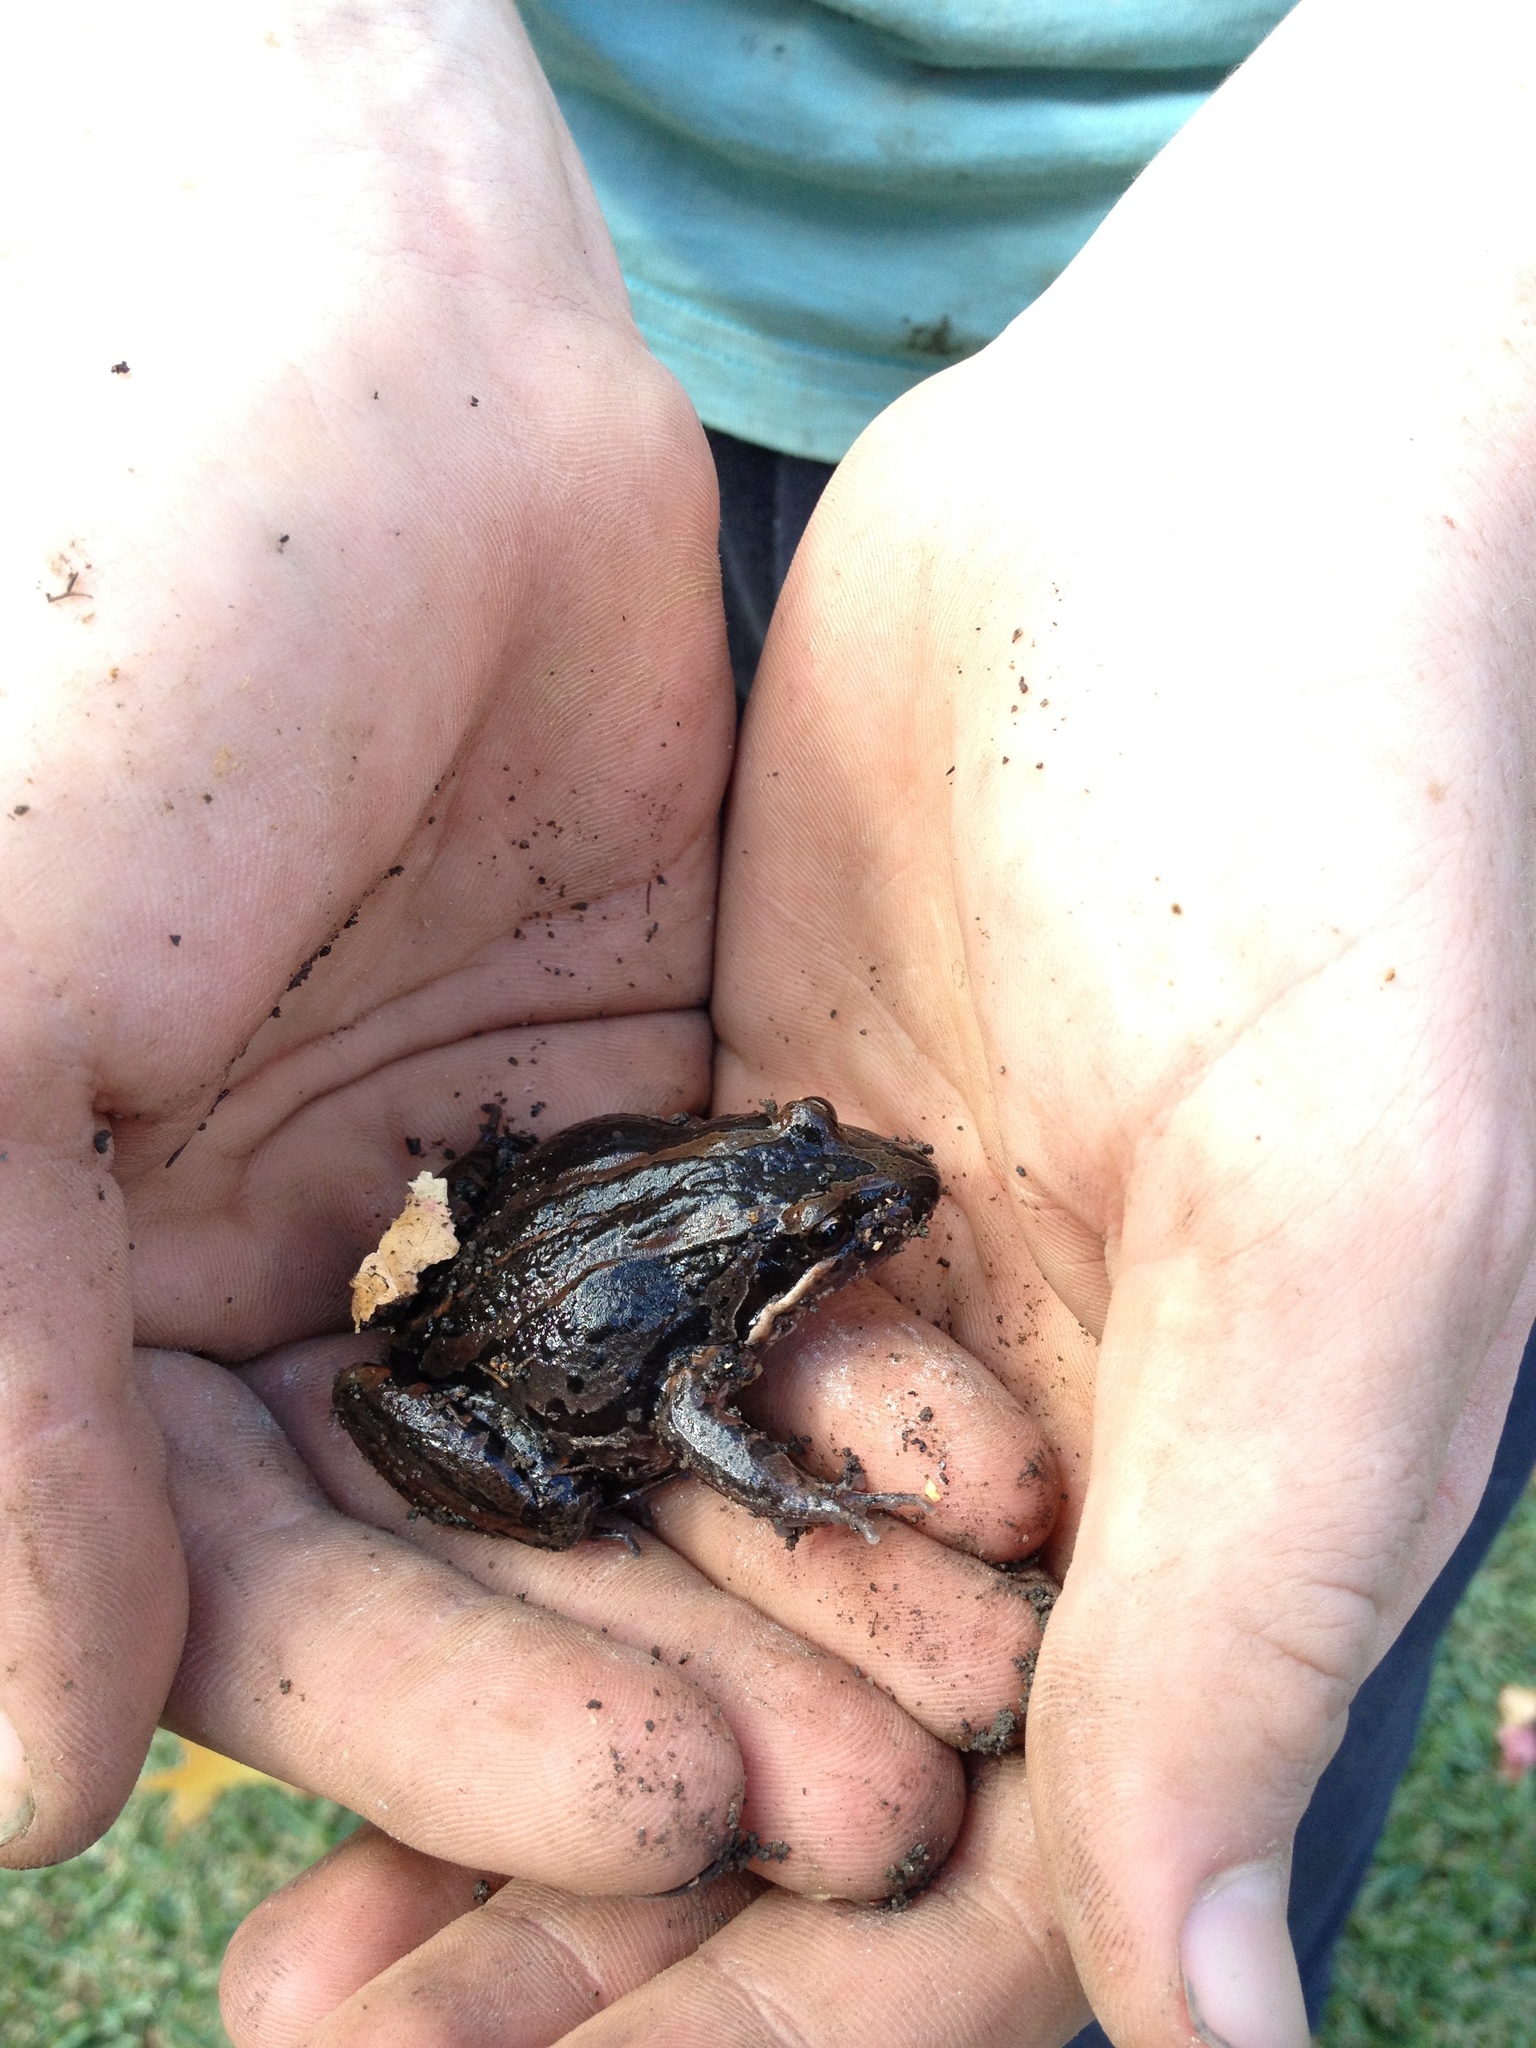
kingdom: Animalia
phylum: Chordata
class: Amphibia
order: Anura
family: Limnodynastidae
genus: Limnodynastes
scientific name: Limnodynastes peronii
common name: Brown frog
